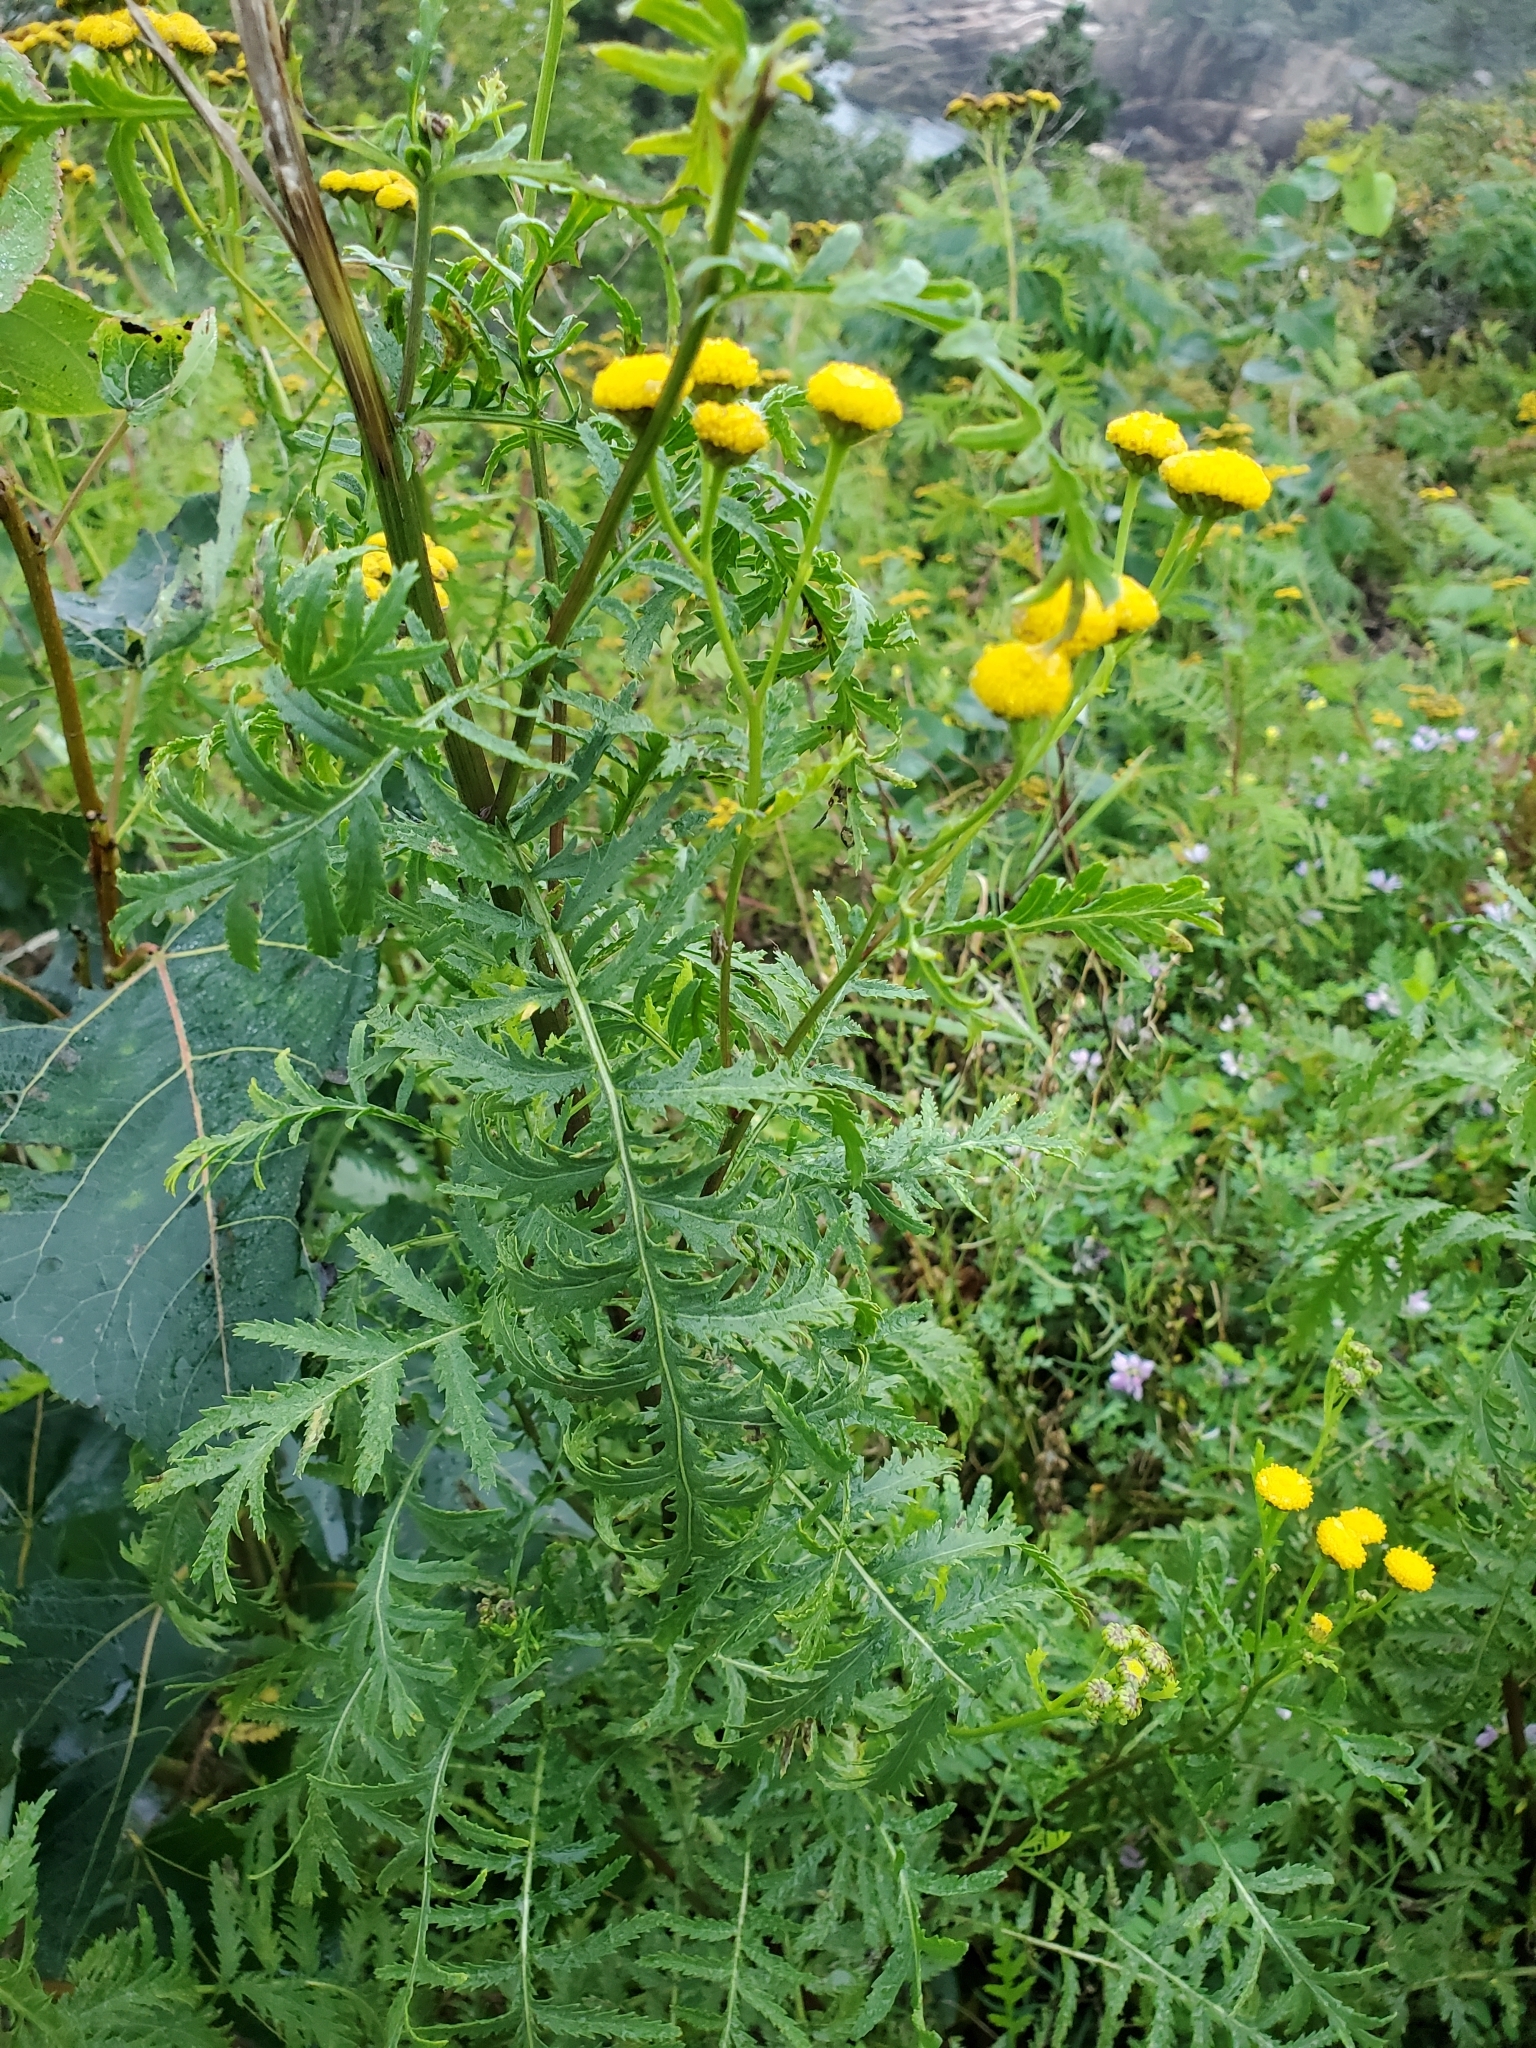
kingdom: Plantae
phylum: Tracheophyta
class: Magnoliopsida
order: Asterales
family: Asteraceae
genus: Tanacetum
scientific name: Tanacetum vulgare
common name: Common tansy
